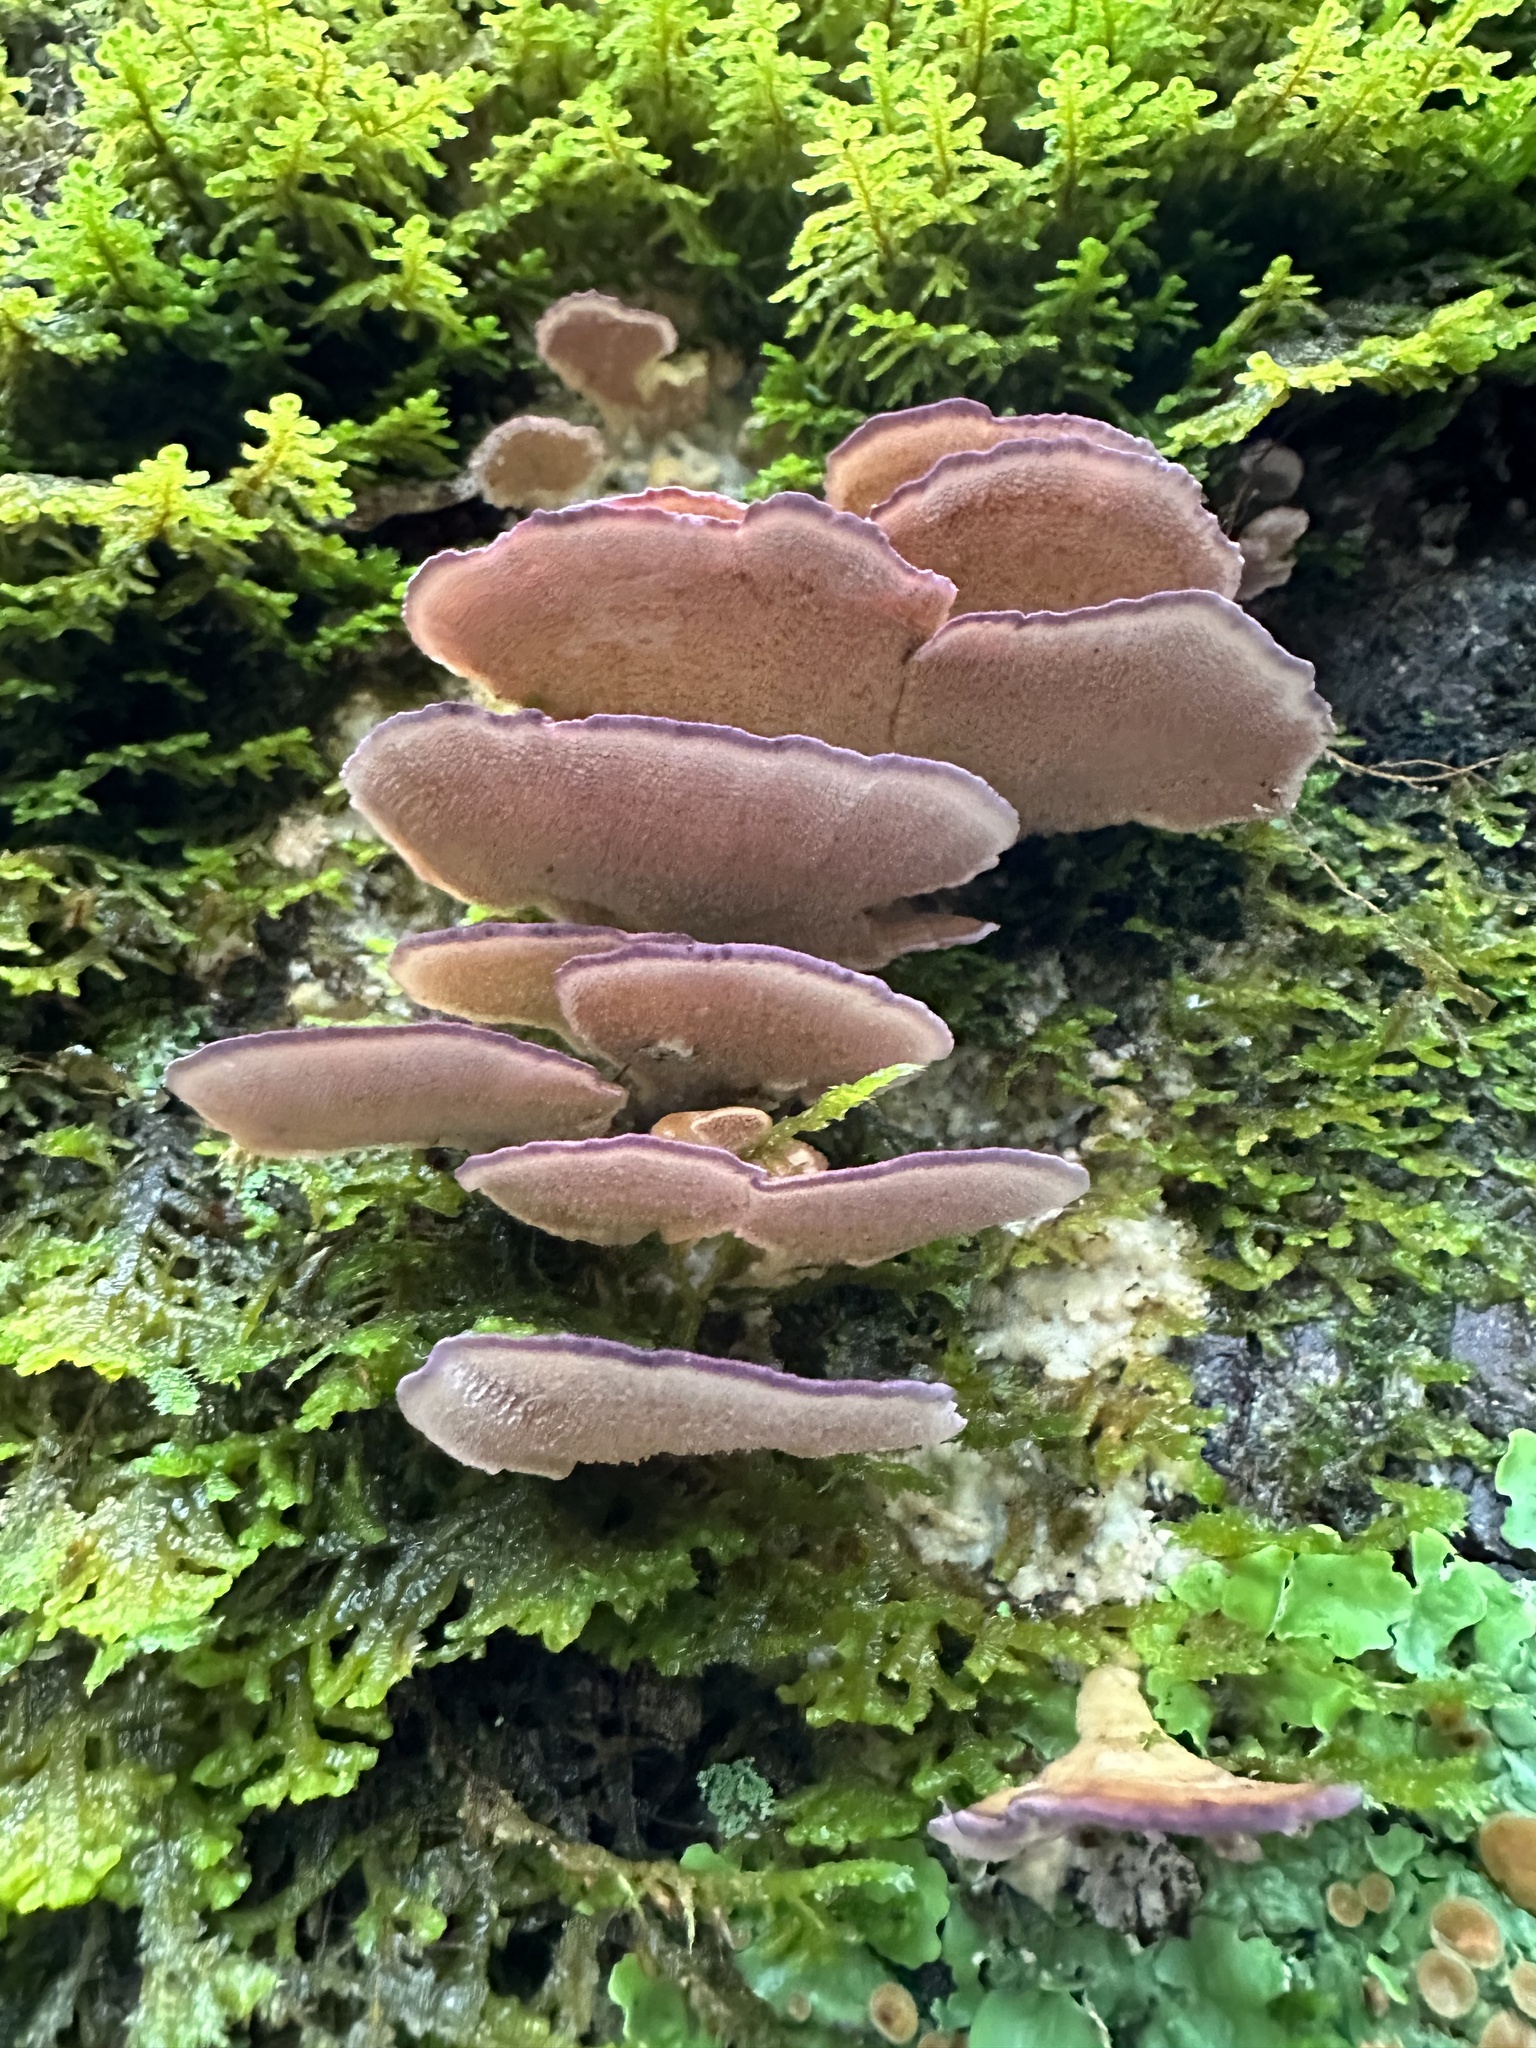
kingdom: Fungi
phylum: Basidiomycota
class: Agaricomycetes
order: Hymenochaetales
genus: Trichaptum
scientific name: Trichaptum biforme
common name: Violet-toothed polypore
